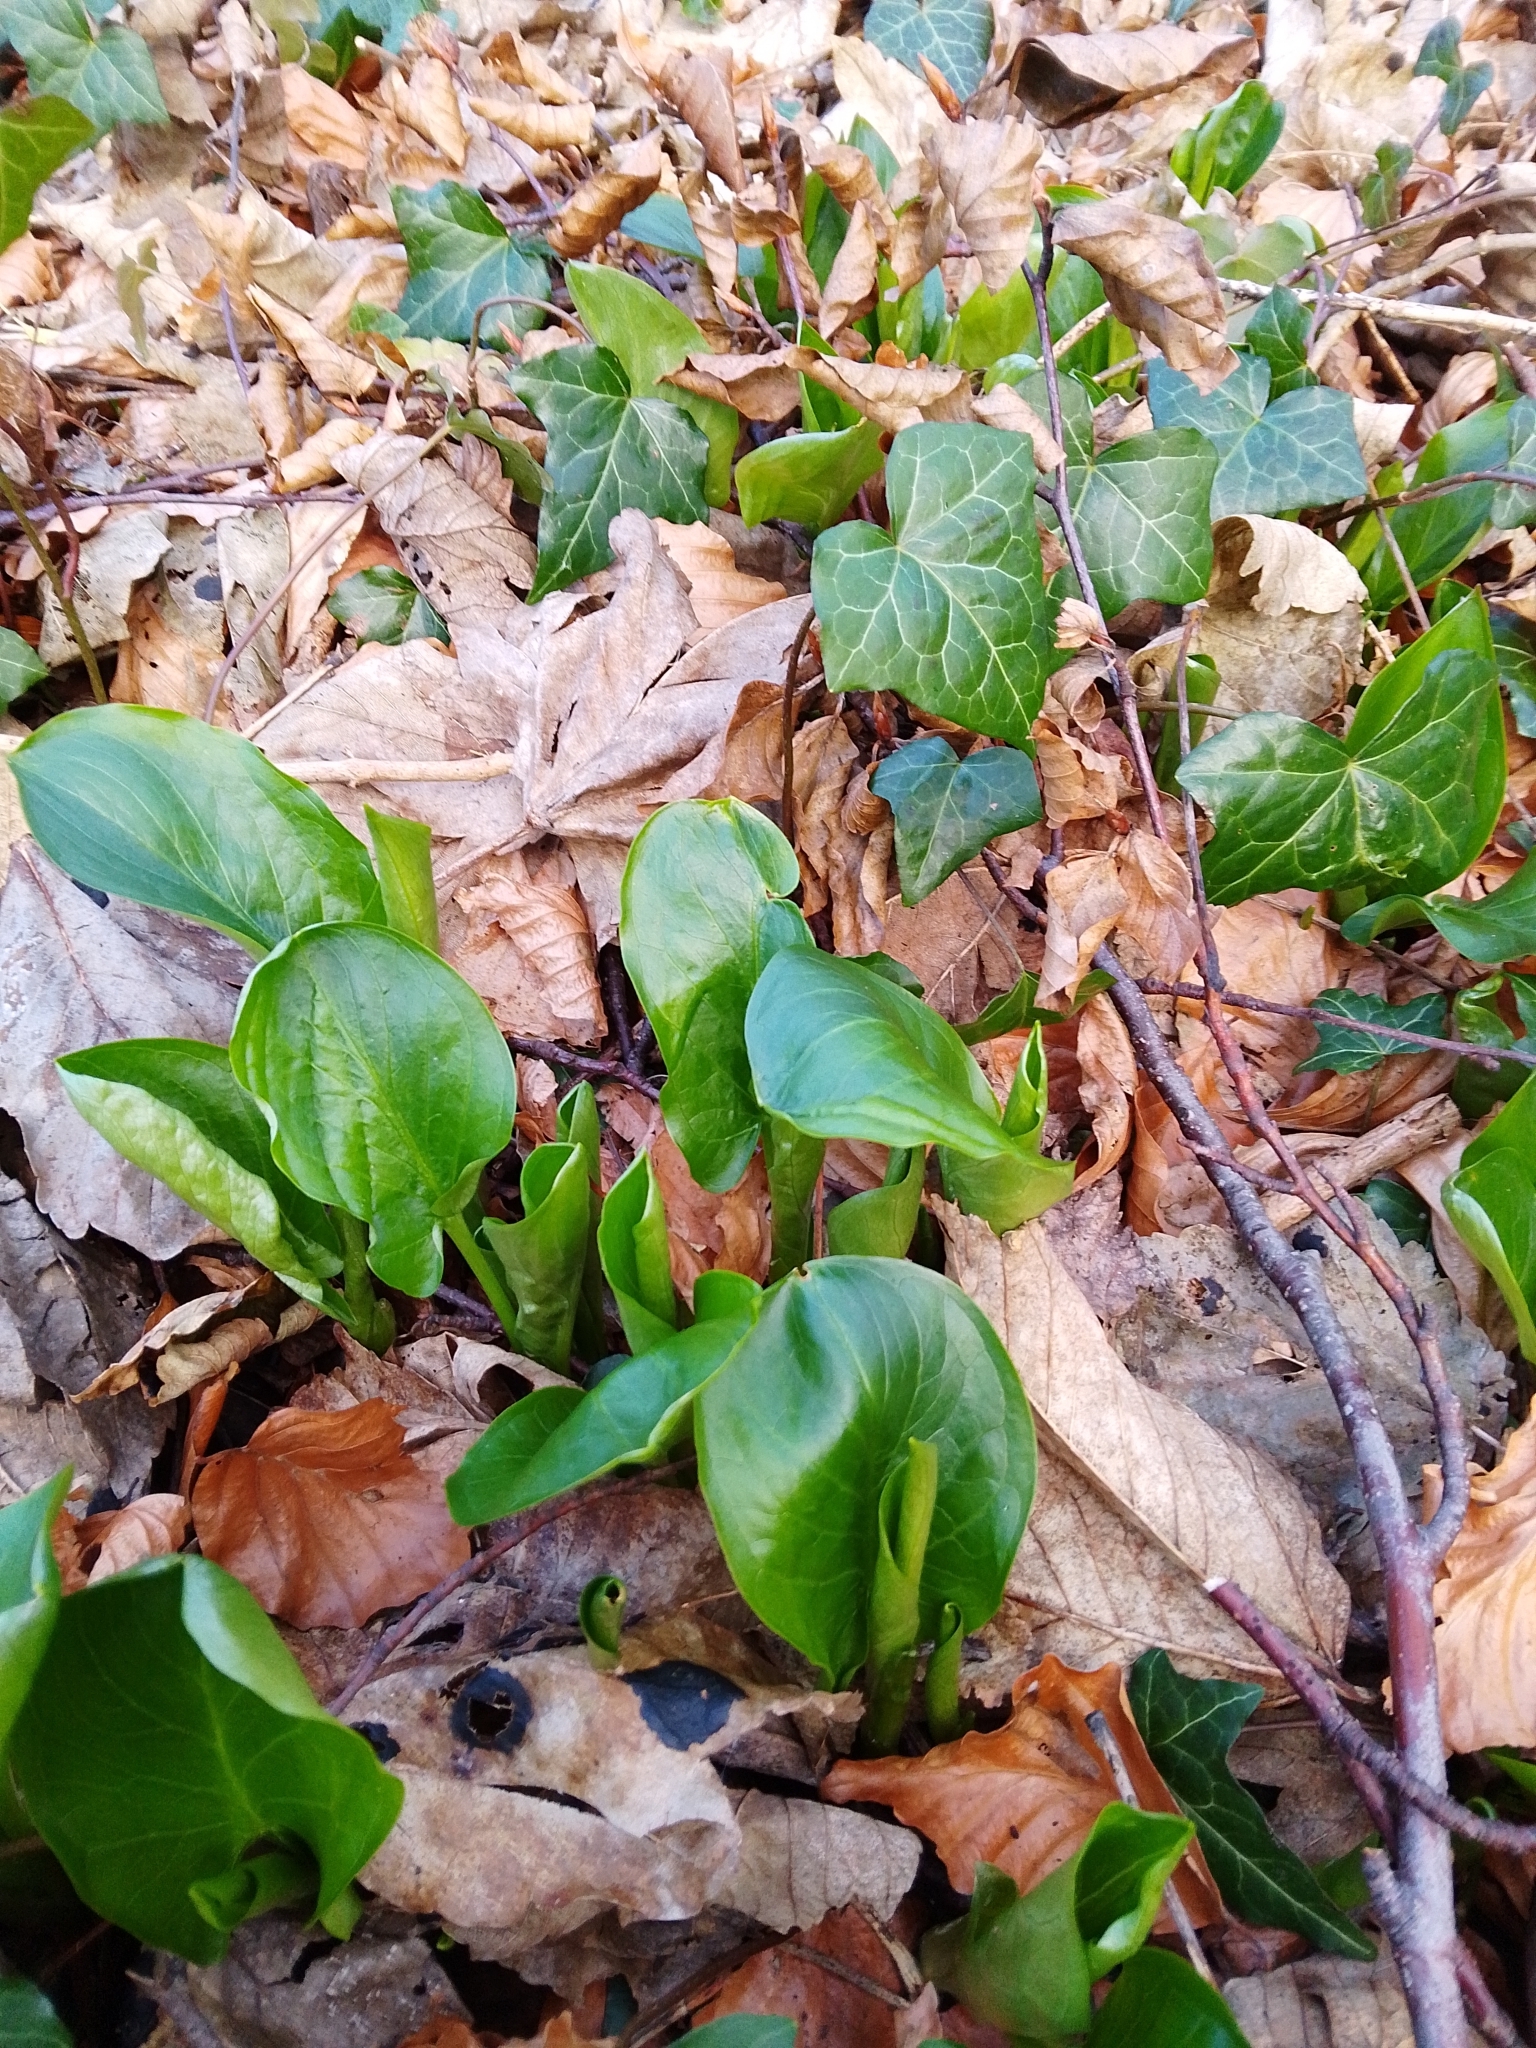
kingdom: Plantae
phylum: Tracheophyta
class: Liliopsida
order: Alismatales
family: Araceae
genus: Arum
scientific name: Arum maculatum
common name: Lords-and-ladies
